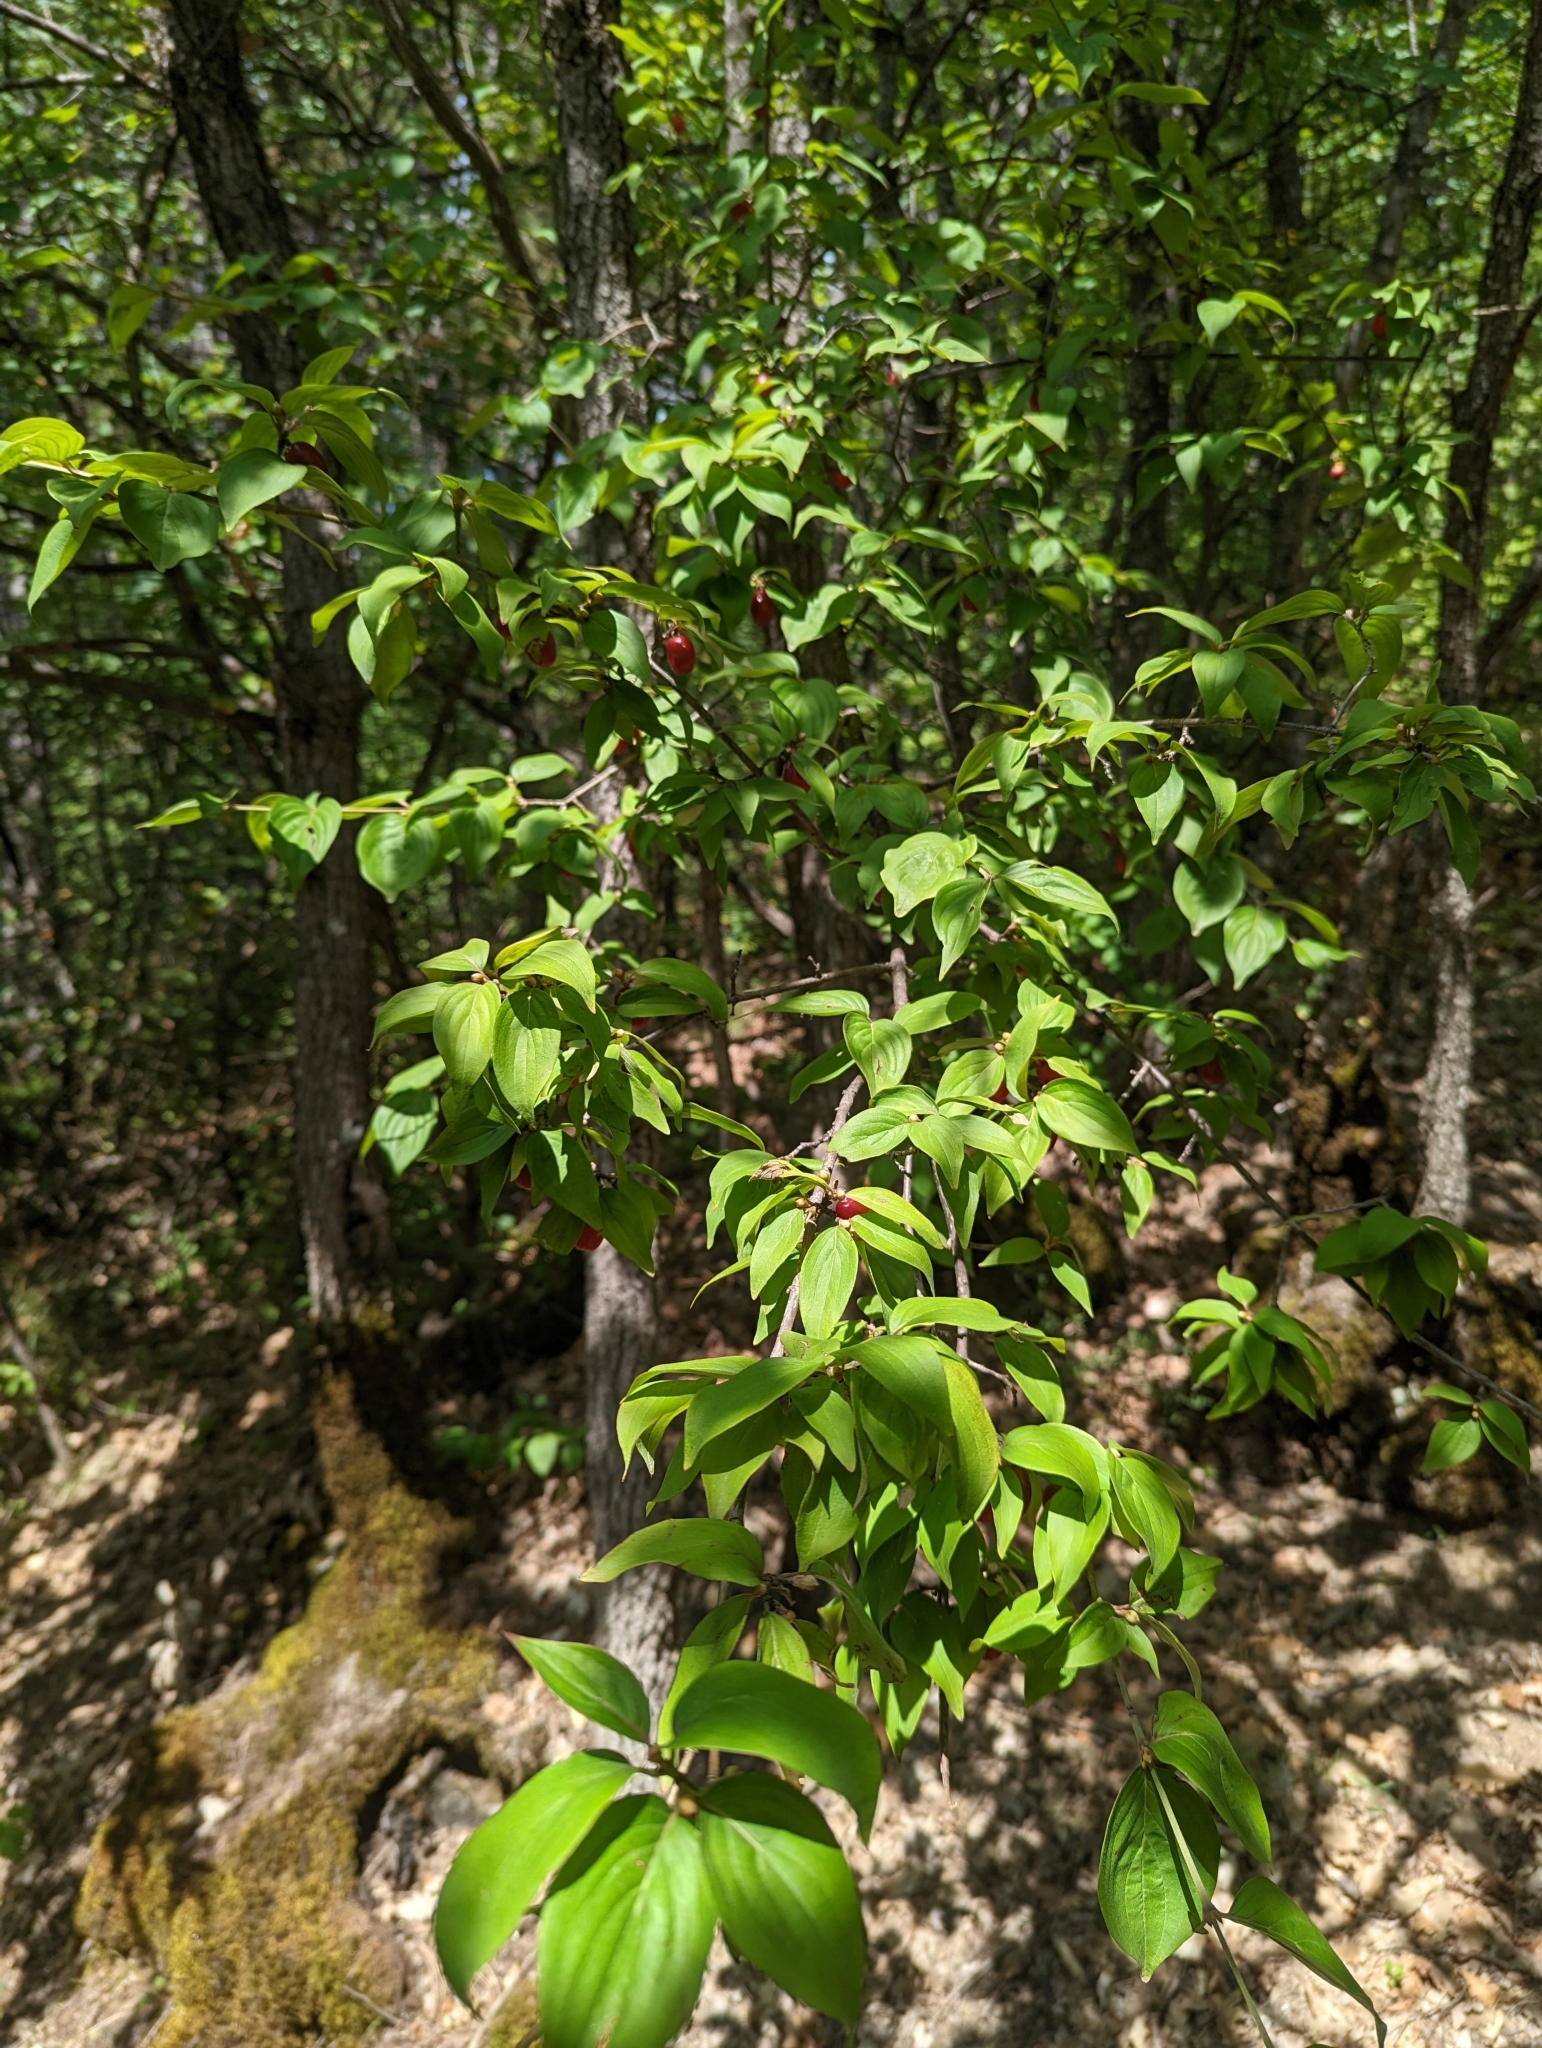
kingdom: Plantae
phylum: Tracheophyta
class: Magnoliopsida
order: Cornales
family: Cornaceae
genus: Cornus
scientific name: Cornus mas
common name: Cornelian-cherry
